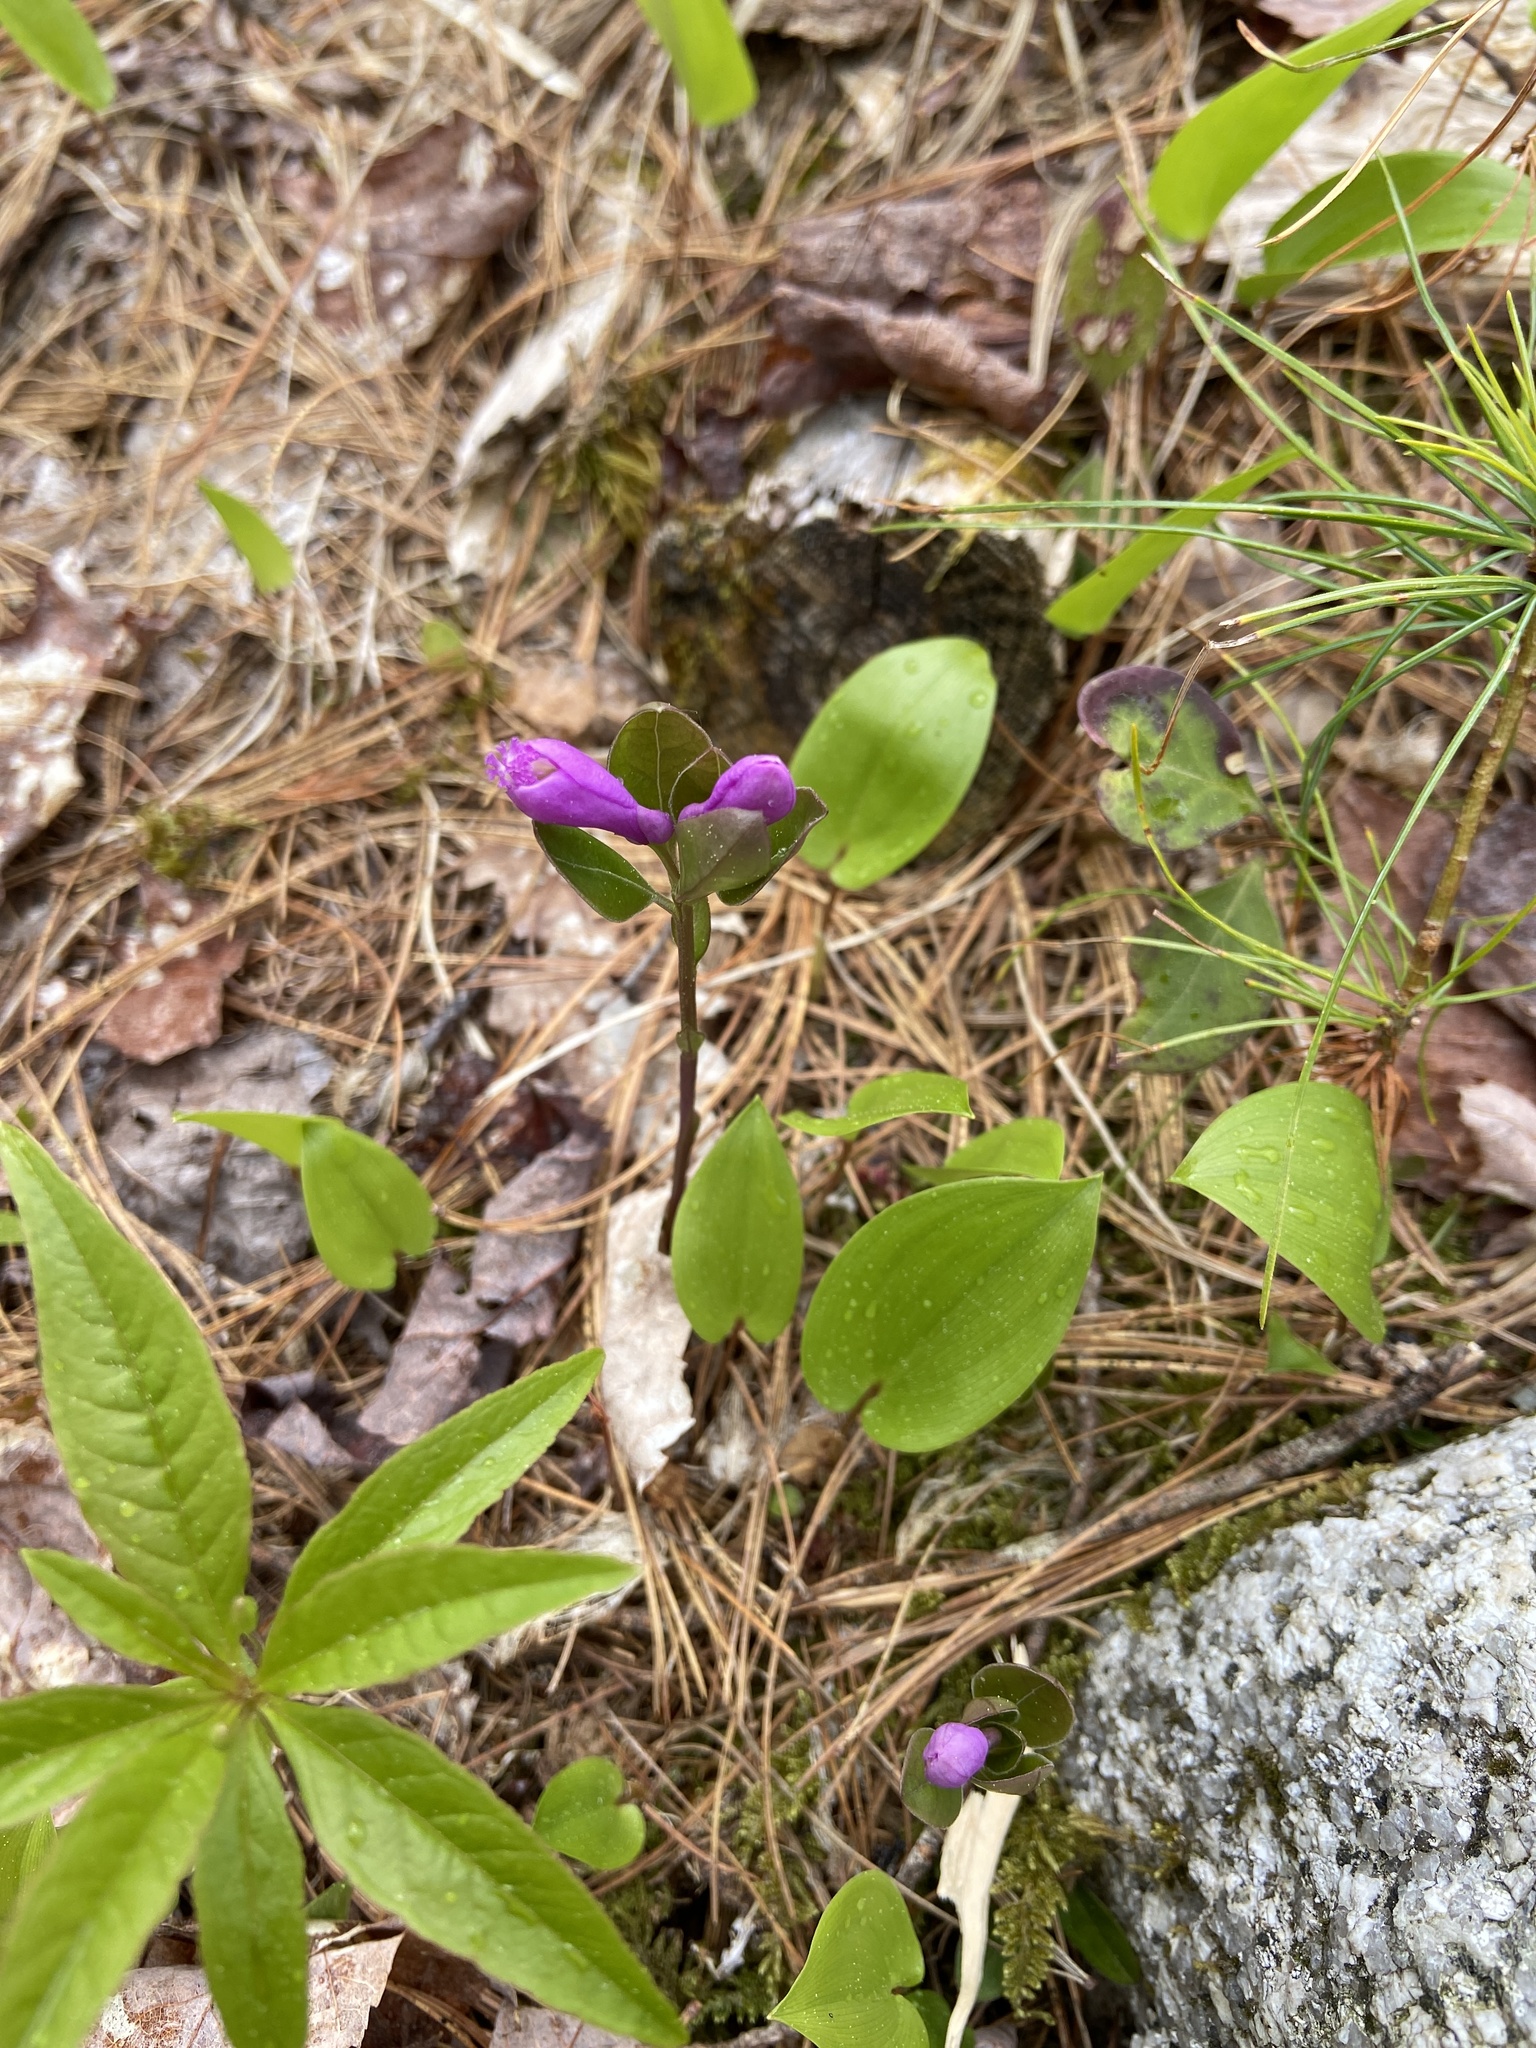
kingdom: Plantae
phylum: Tracheophyta
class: Magnoliopsida
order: Fabales
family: Polygalaceae
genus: Polygaloides
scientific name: Polygaloides paucifolia
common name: Bird-on-the-wing
